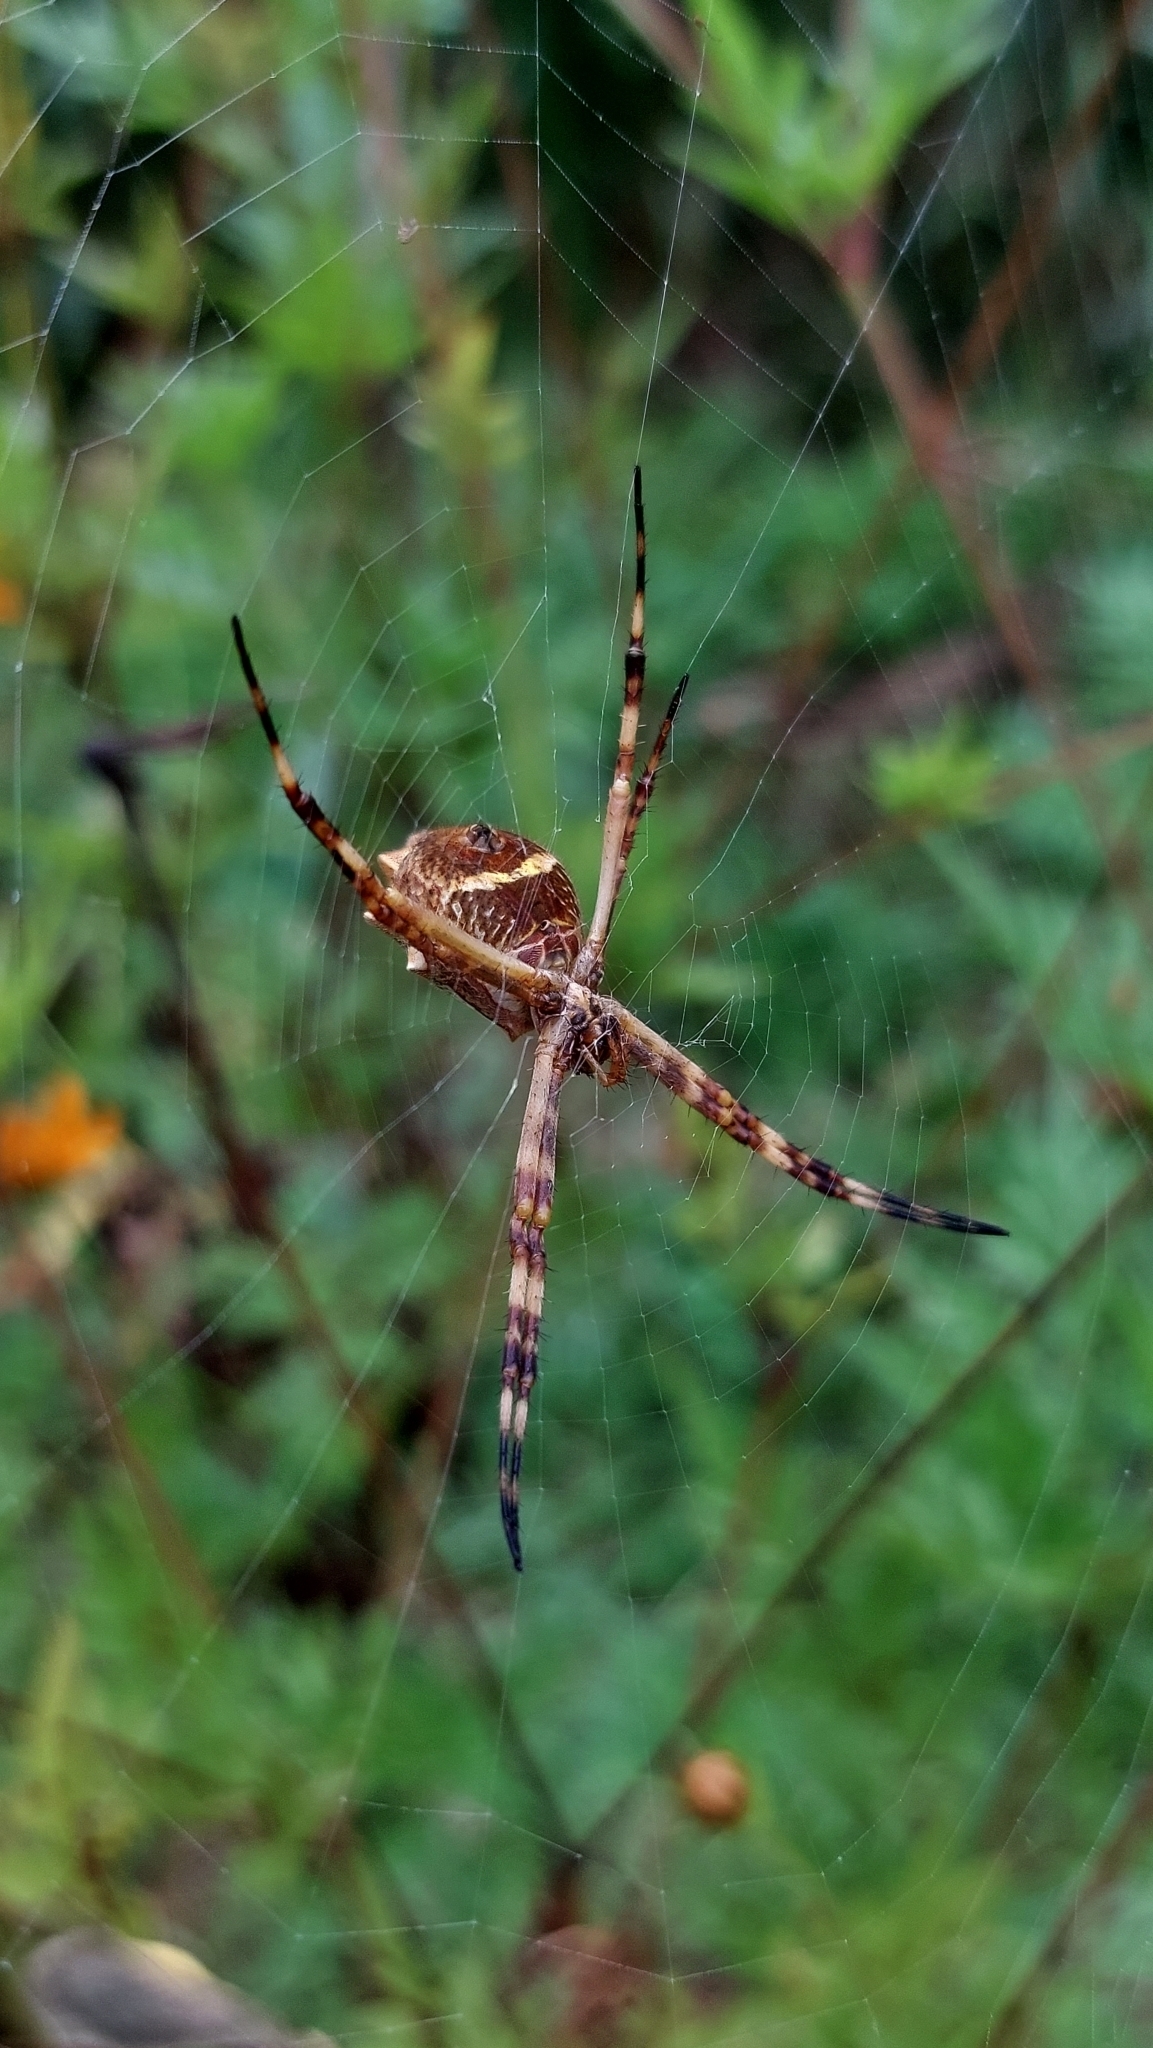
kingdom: Animalia
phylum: Arthropoda
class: Arachnida
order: Araneae
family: Araneidae
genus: Argiope
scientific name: Argiope argentata
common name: Orb weavers
